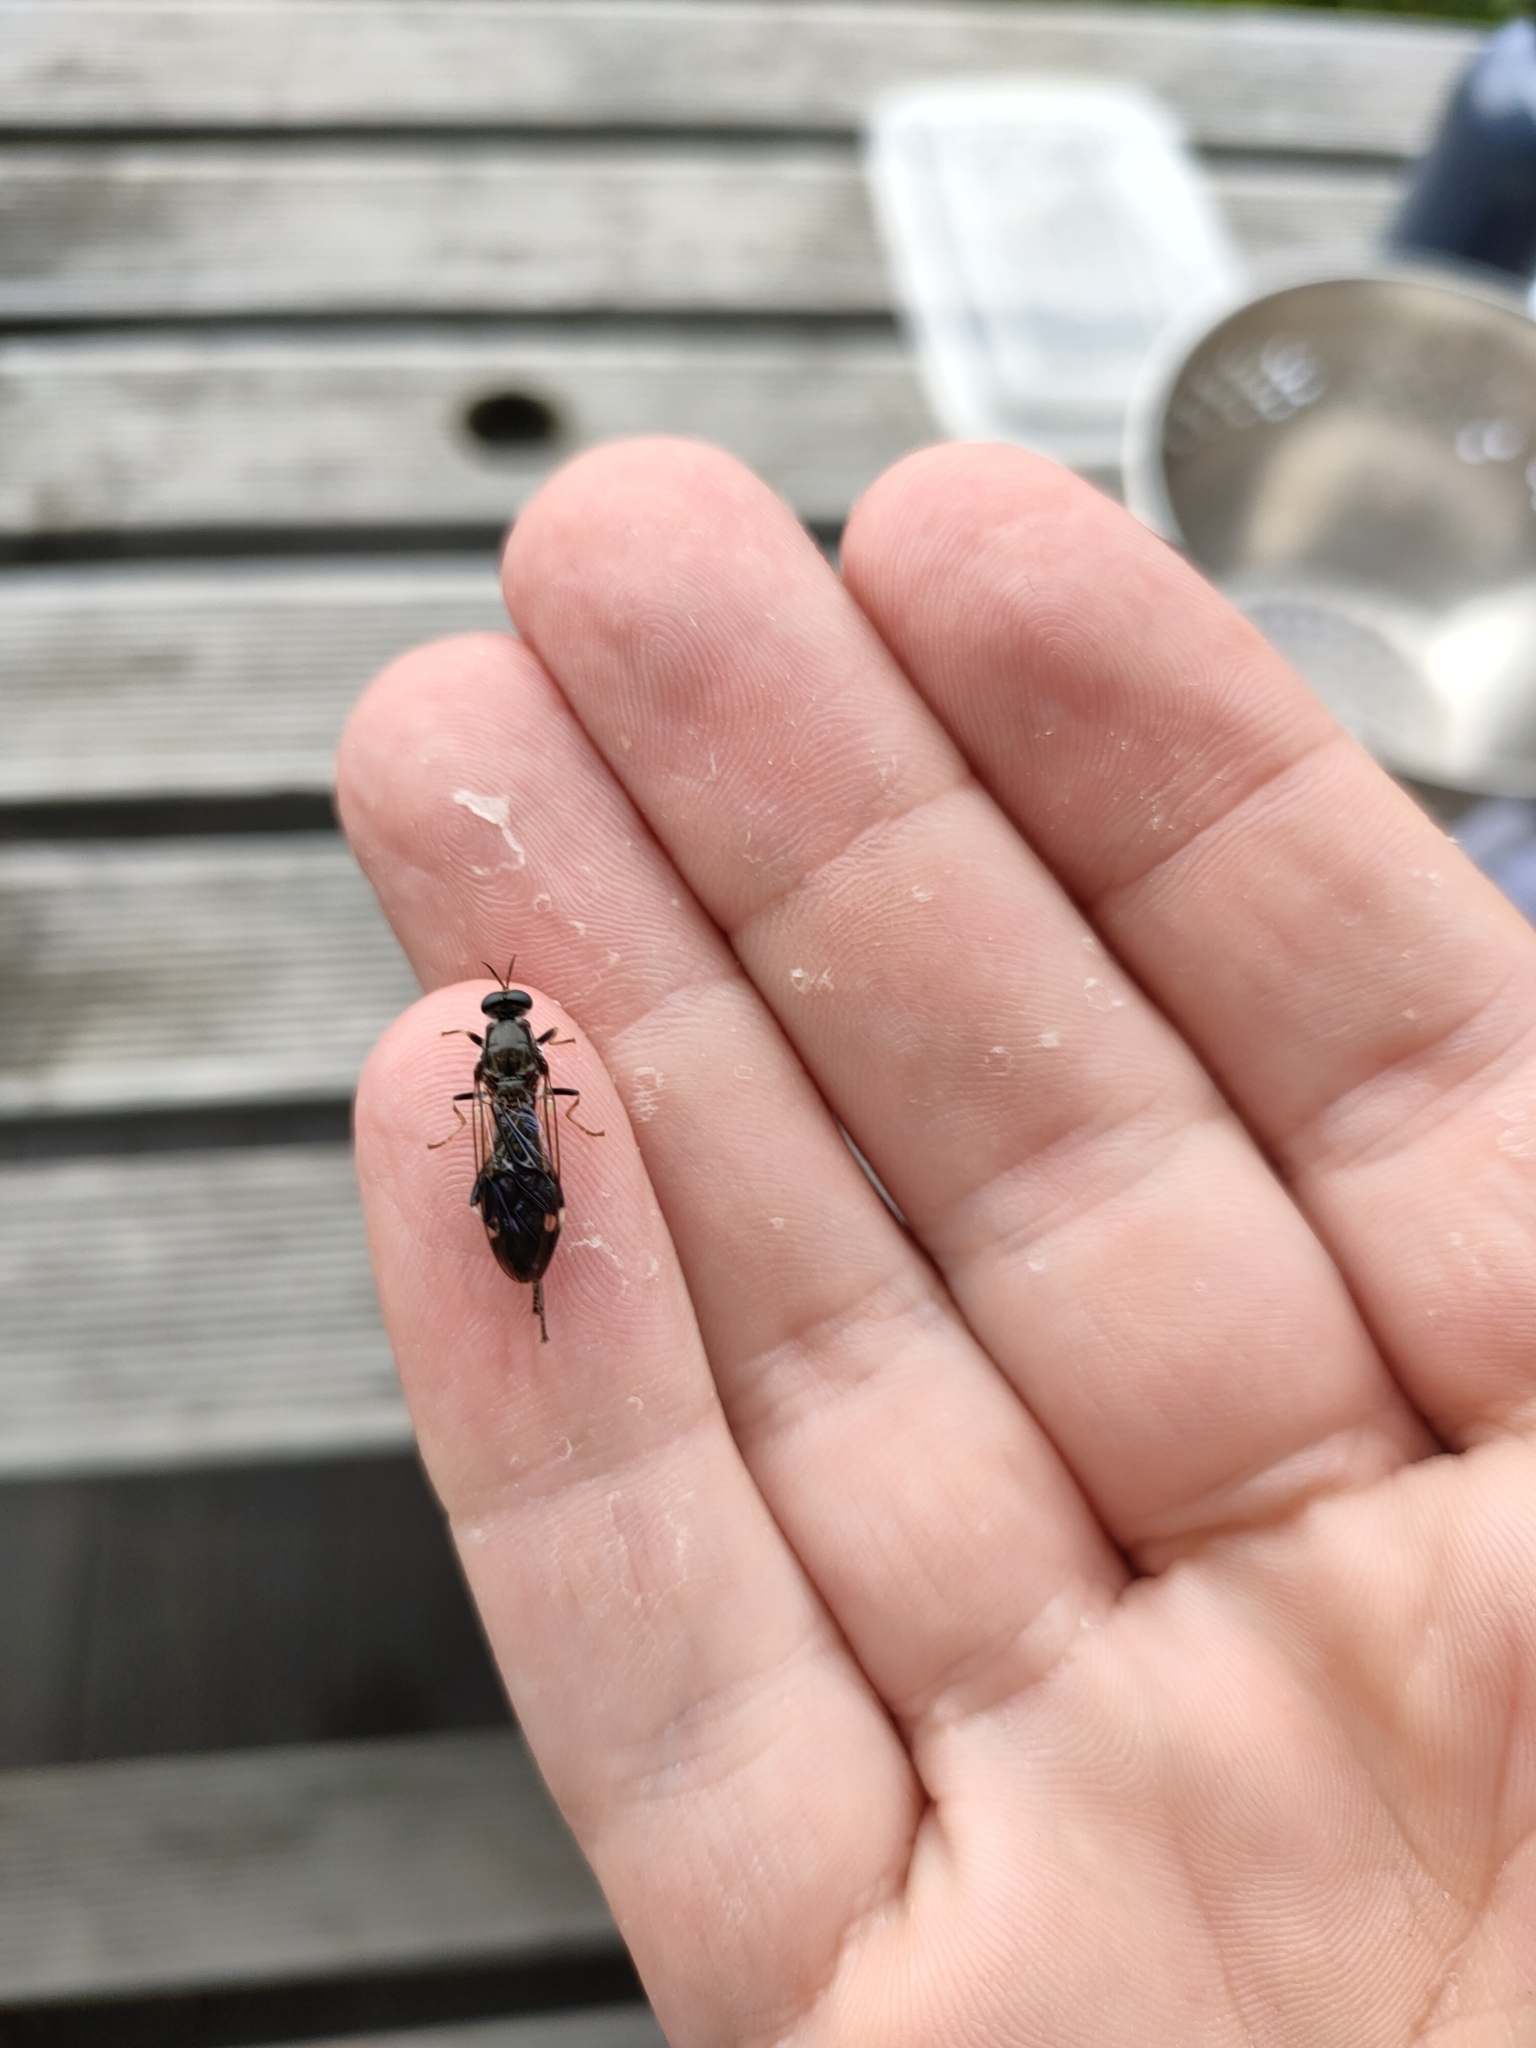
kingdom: Animalia
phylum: Arthropoda
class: Insecta
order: Diptera
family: Stratiomyidae
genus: Exaireta
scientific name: Exaireta spinigera
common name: Blue soldier fly
